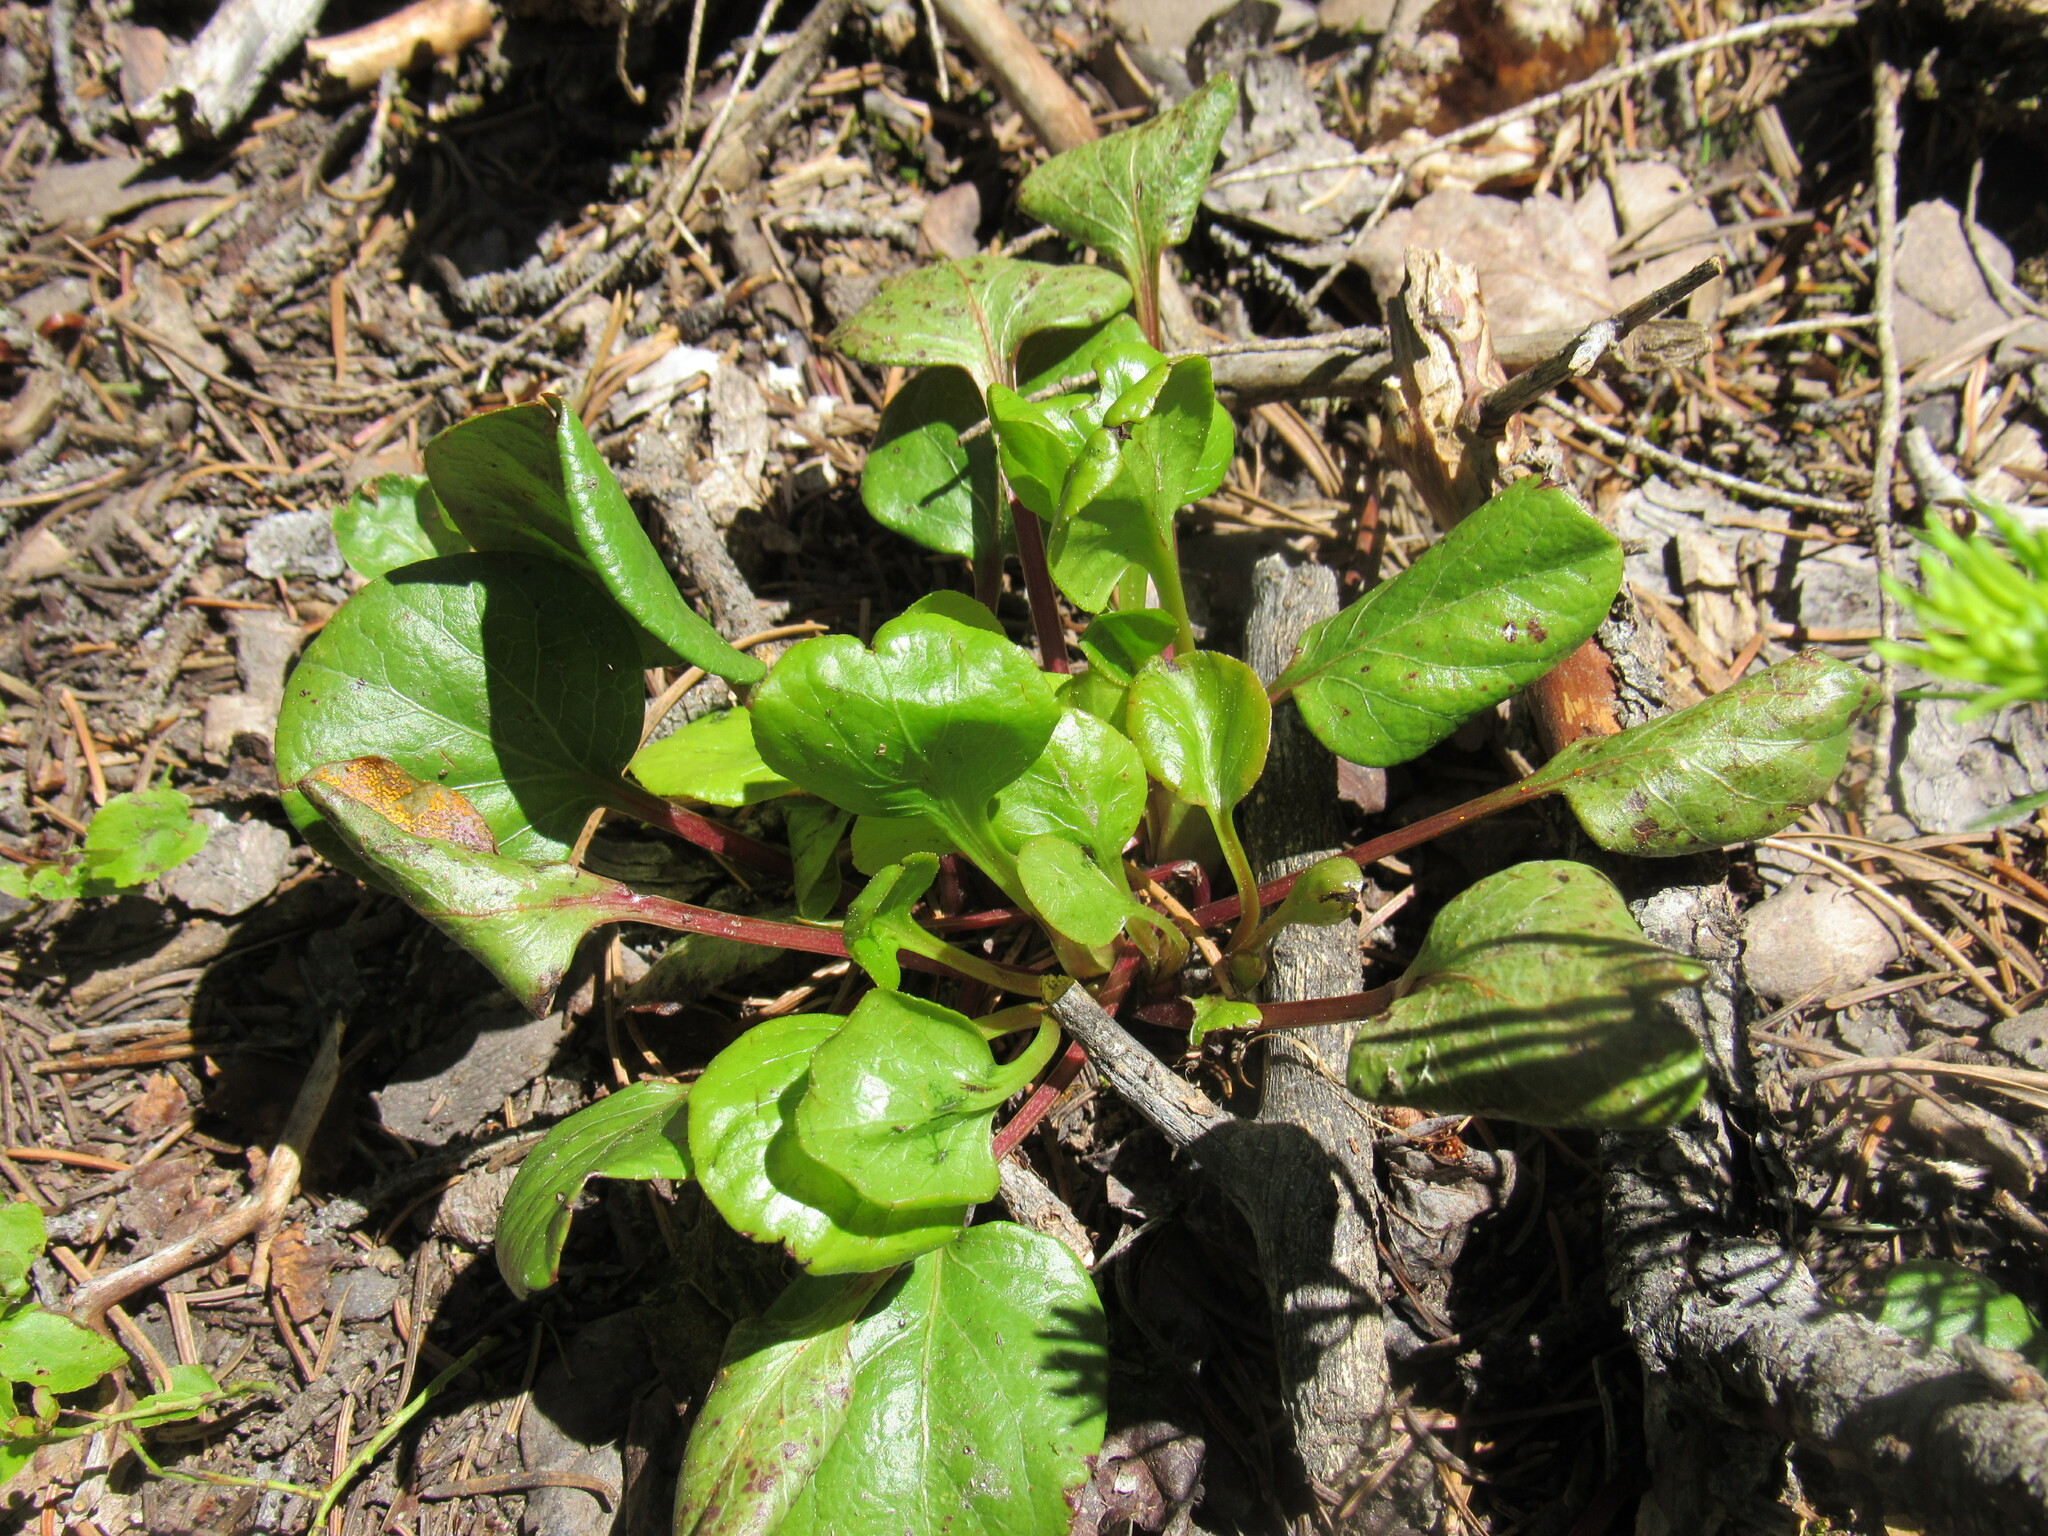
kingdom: Fungi
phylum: Basidiomycota
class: Pucciniomycetes
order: Pucciniales
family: Coleosporiaceae
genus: Rossmanomyces
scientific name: Rossmanomyces pyrolae
